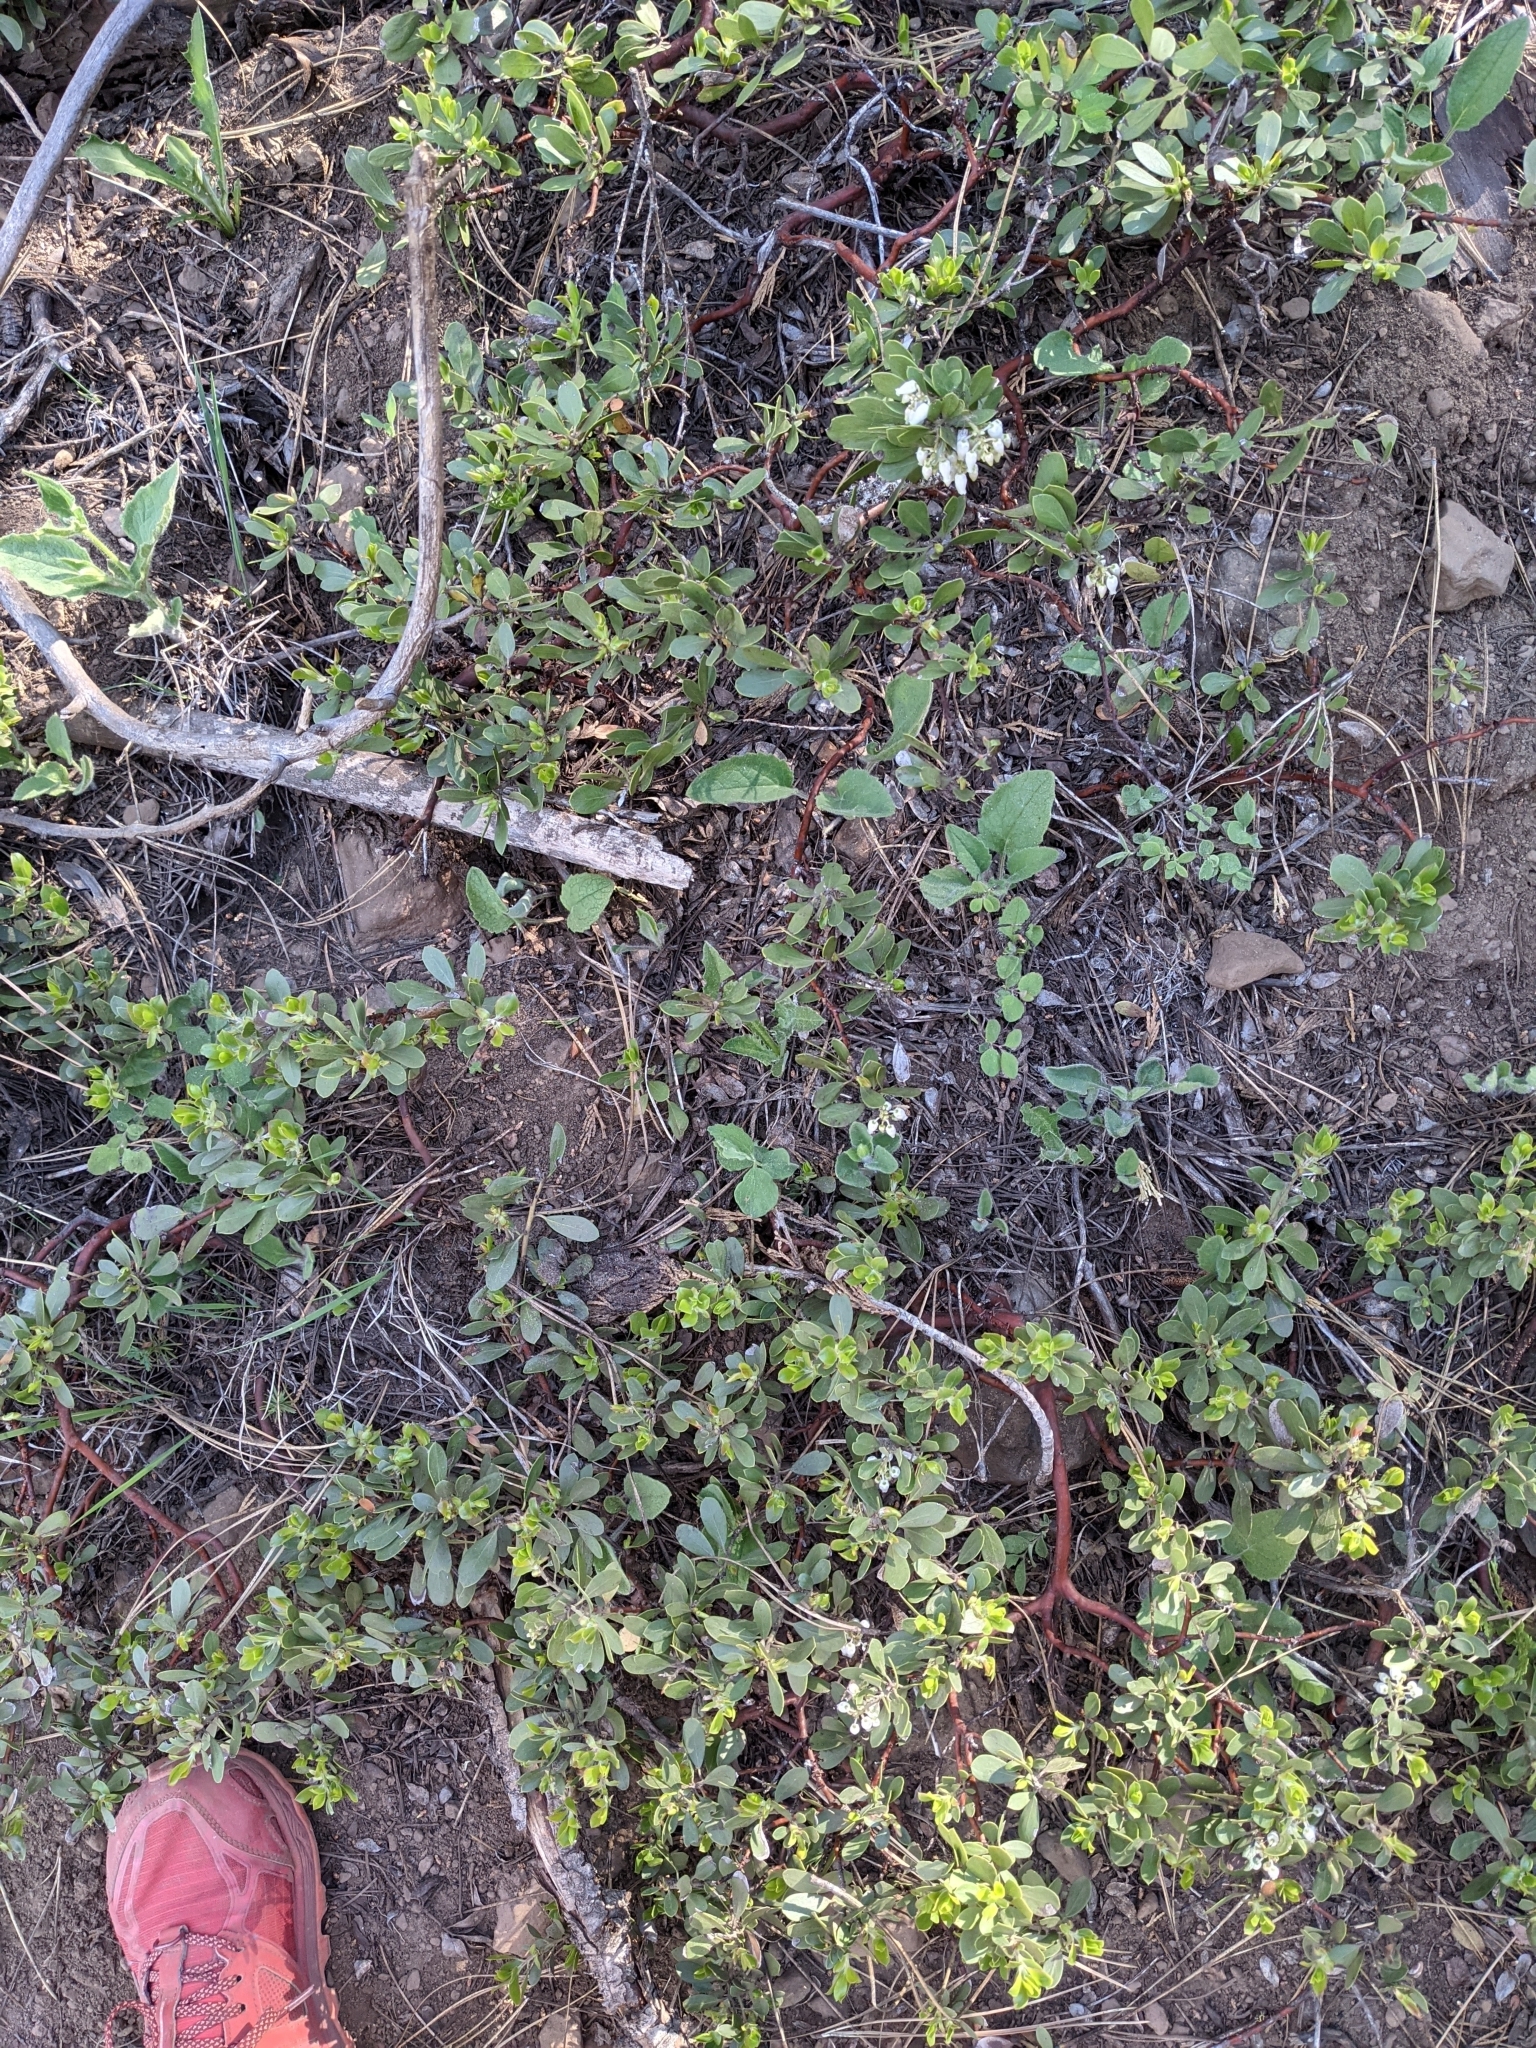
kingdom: Plantae
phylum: Tracheophyta
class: Magnoliopsida
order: Ericales
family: Ericaceae
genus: Arctostaphylos
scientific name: Arctostaphylos nevadensis
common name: Pinemat manzanita
